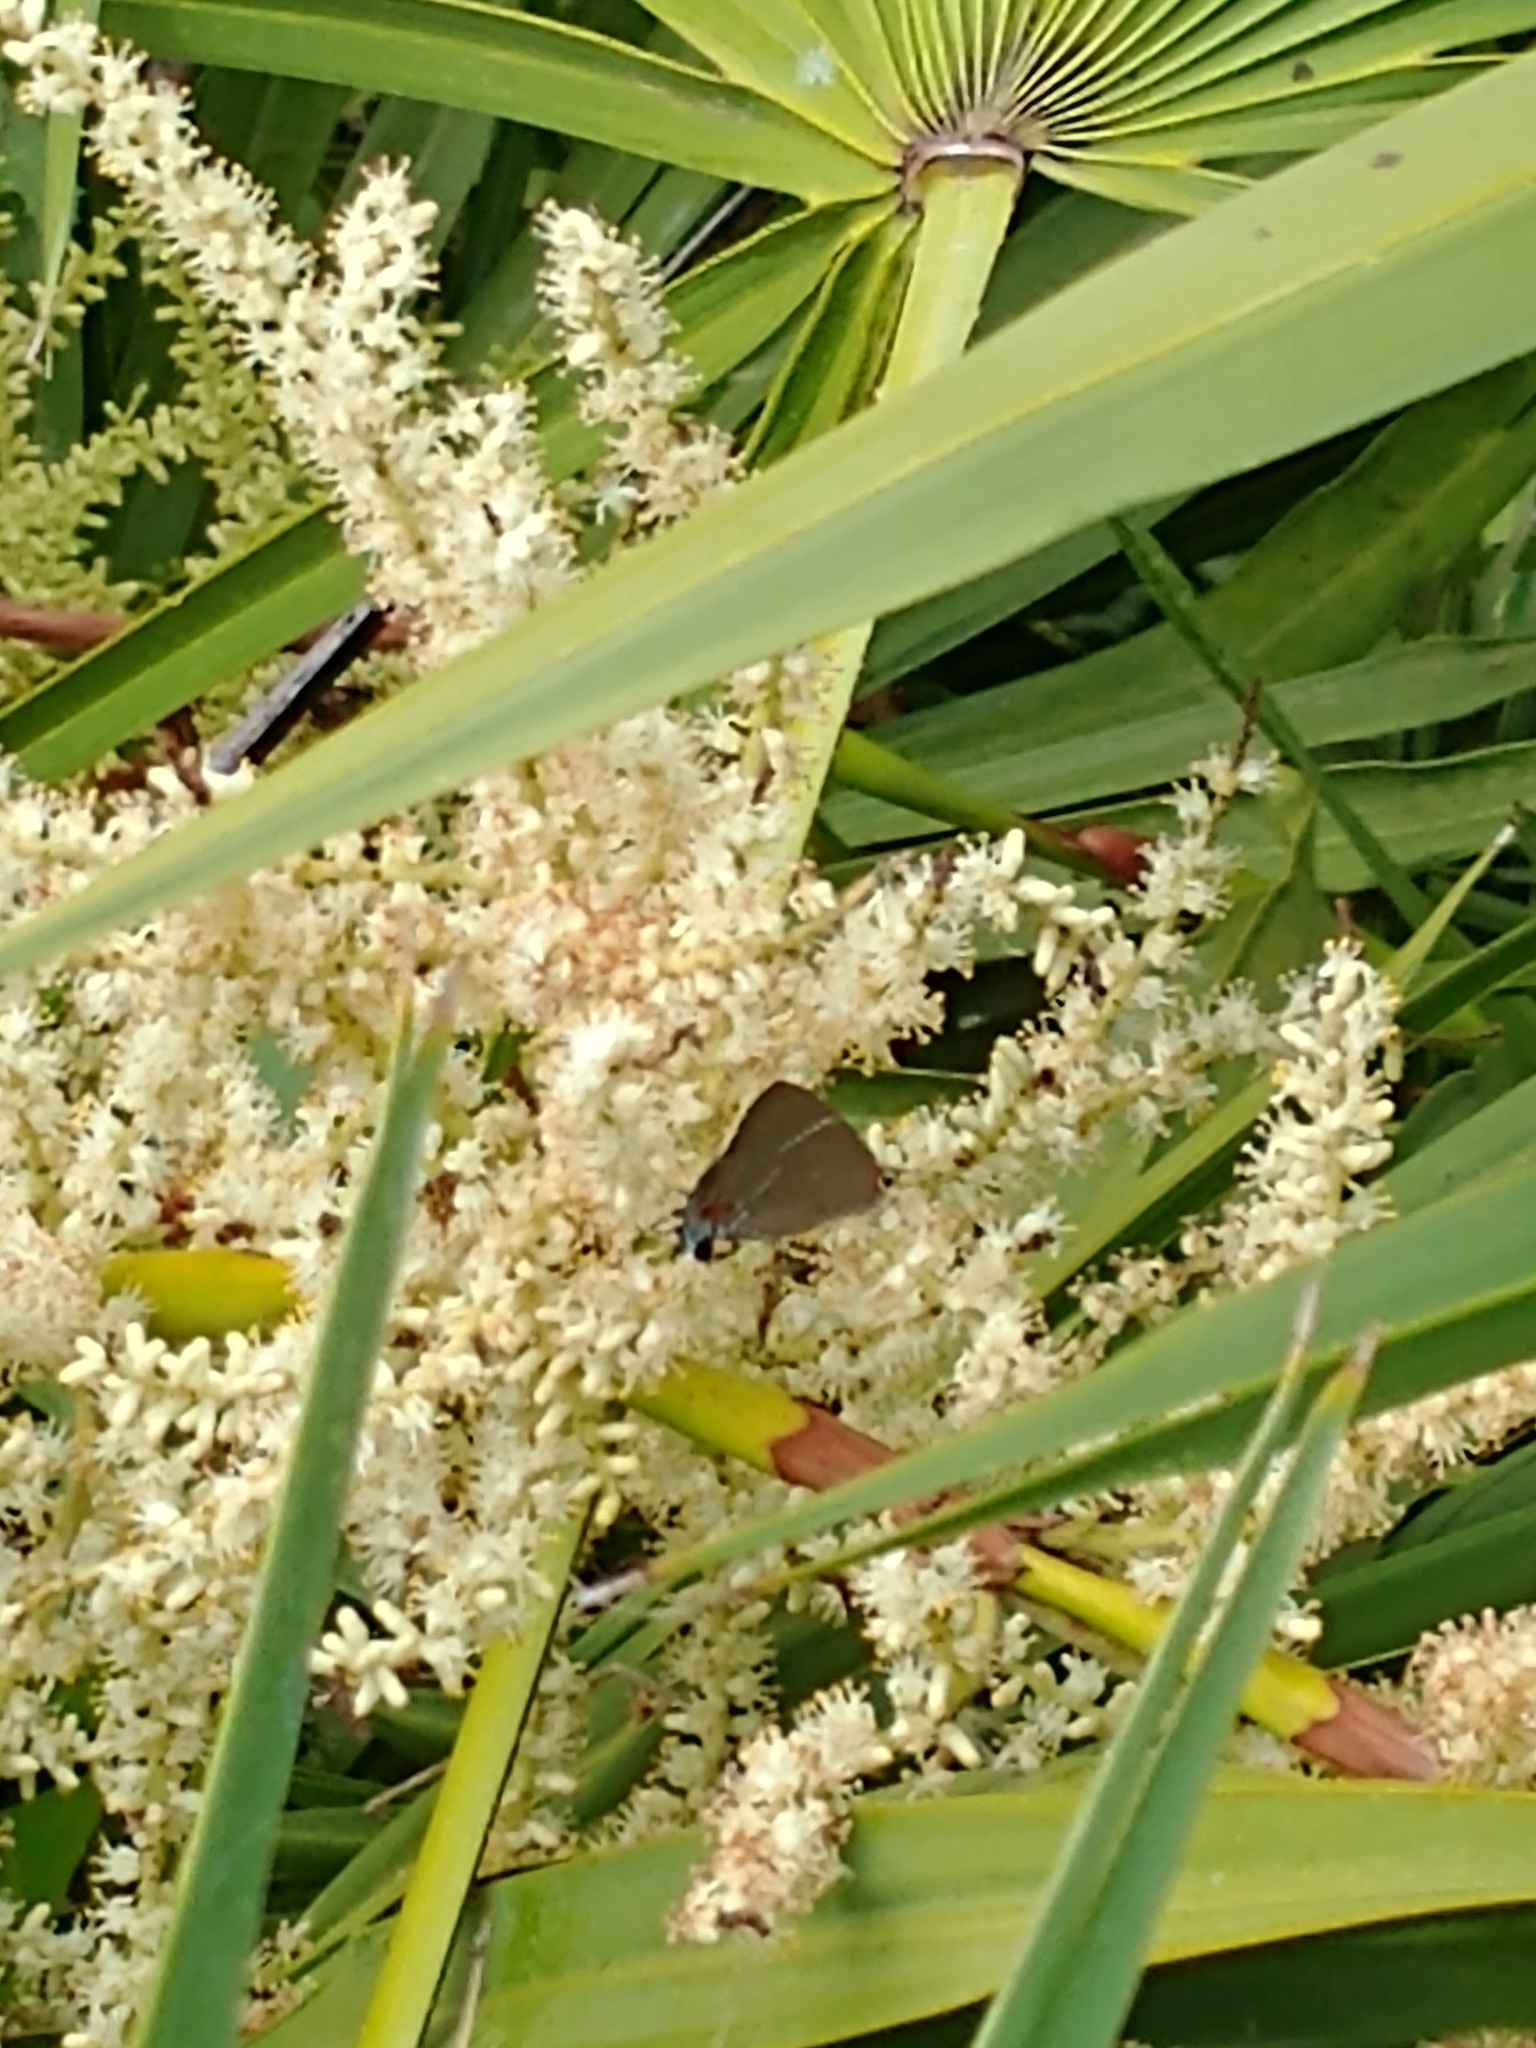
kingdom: Animalia
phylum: Arthropoda
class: Insecta
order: Lepidoptera
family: Lycaenidae
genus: Parrhasius
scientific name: Parrhasius m-album
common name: White m hairstreak
